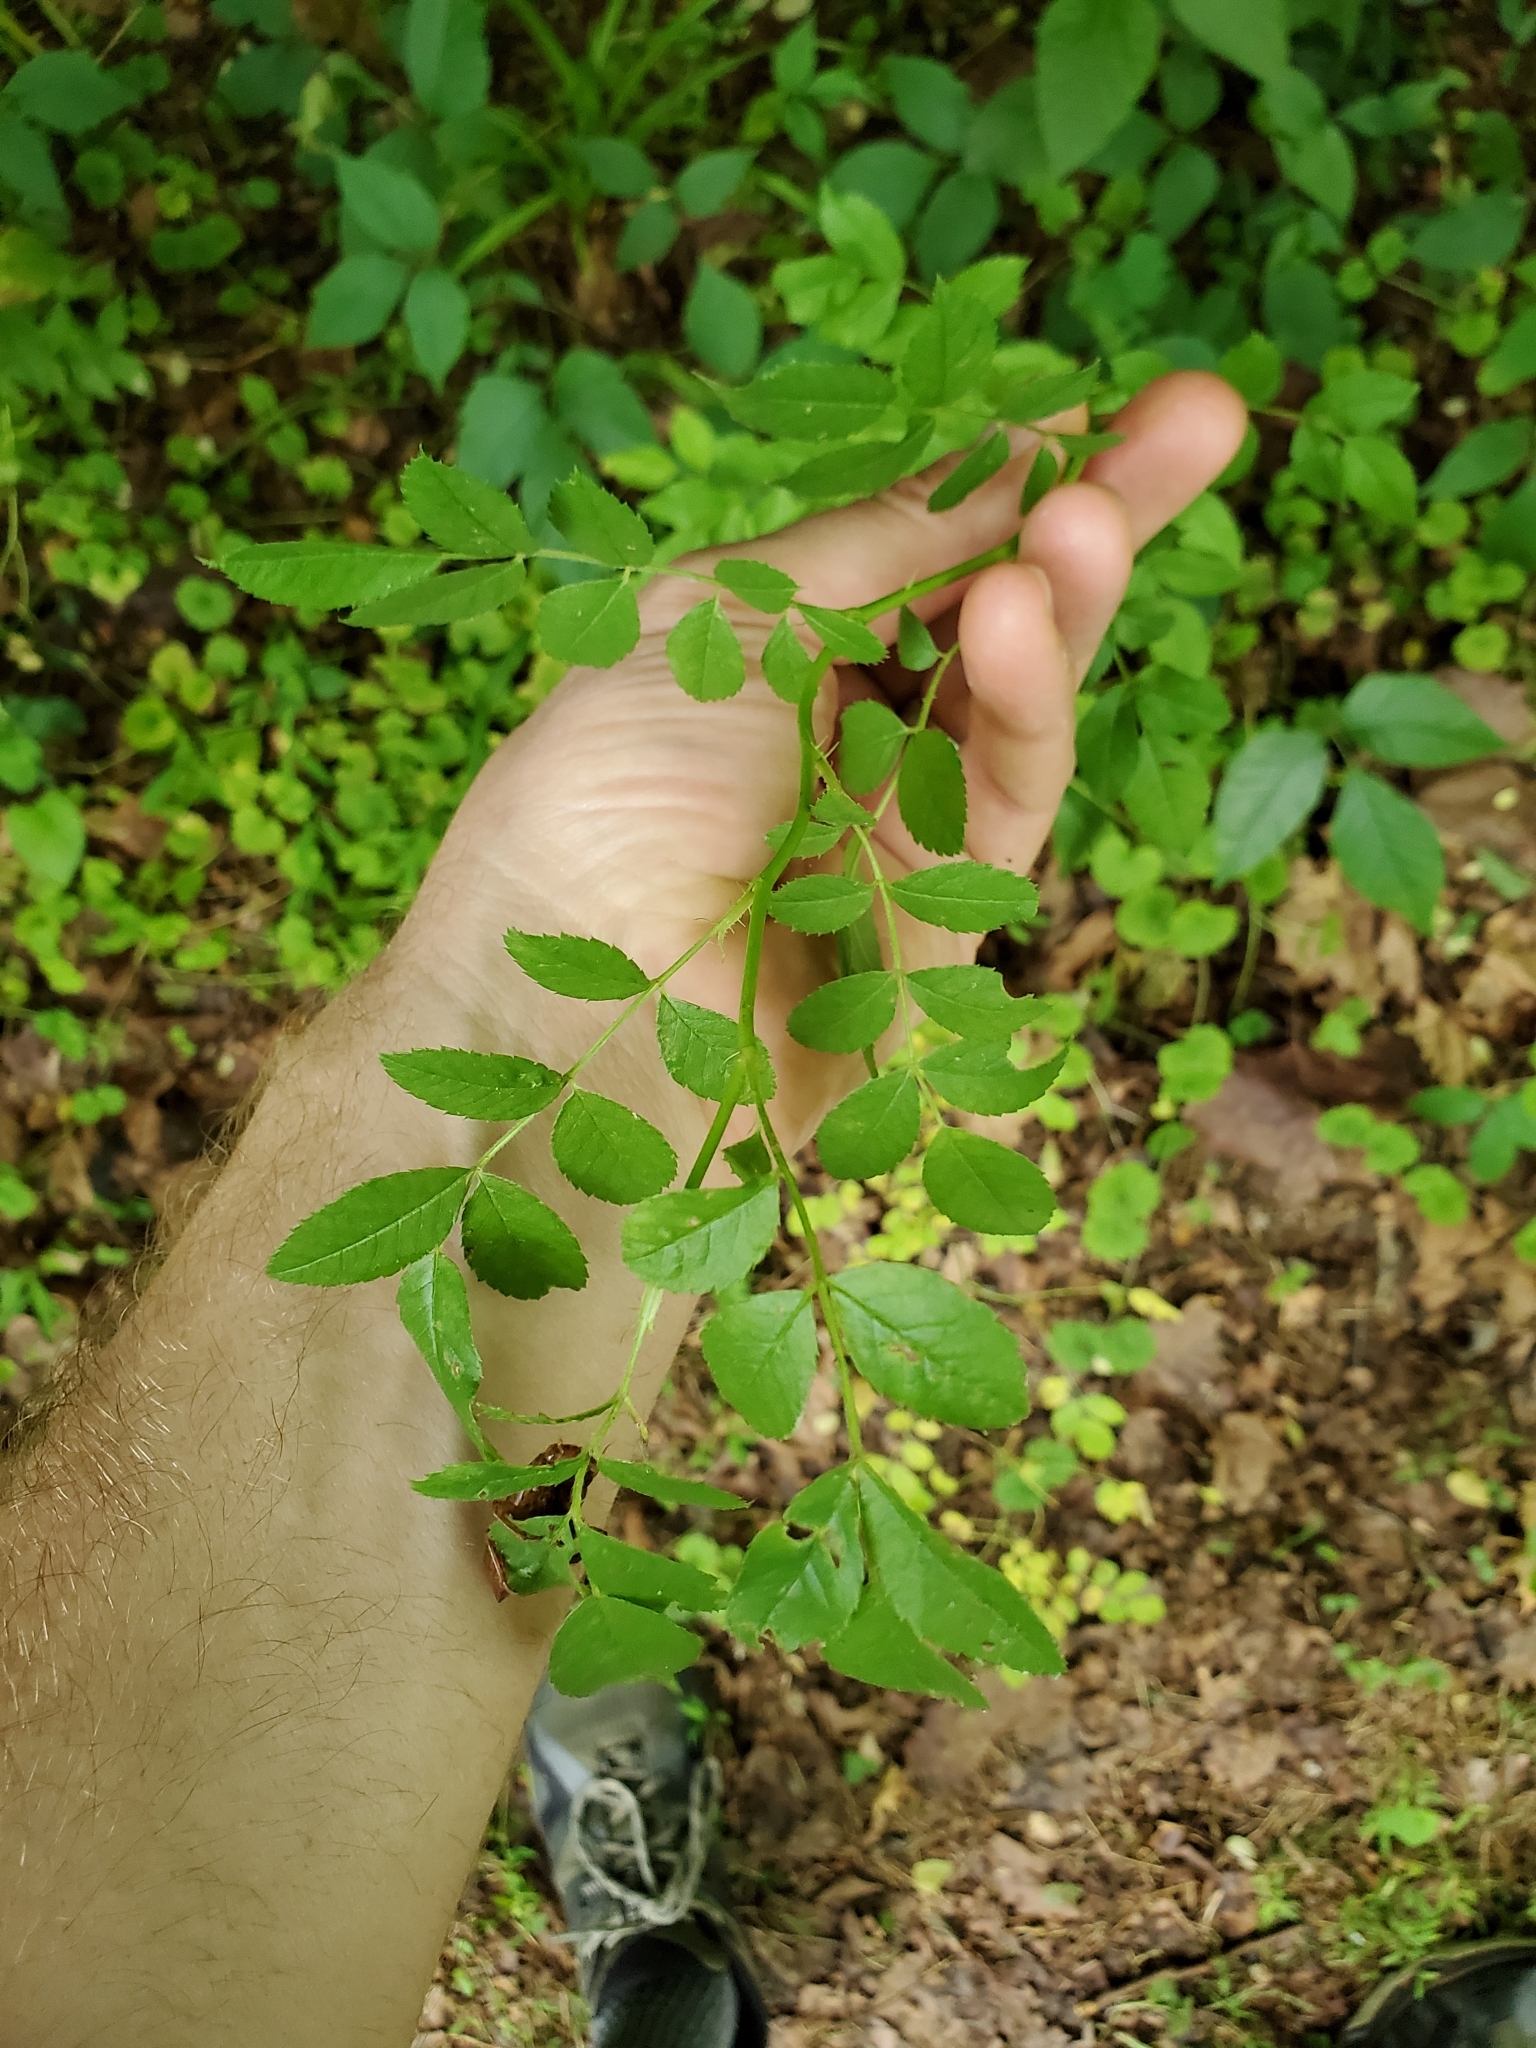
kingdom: Plantae
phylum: Tracheophyta
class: Magnoliopsida
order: Rosales
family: Rosaceae
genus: Rosa
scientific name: Rosa multiflora
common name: Multiflora rose
